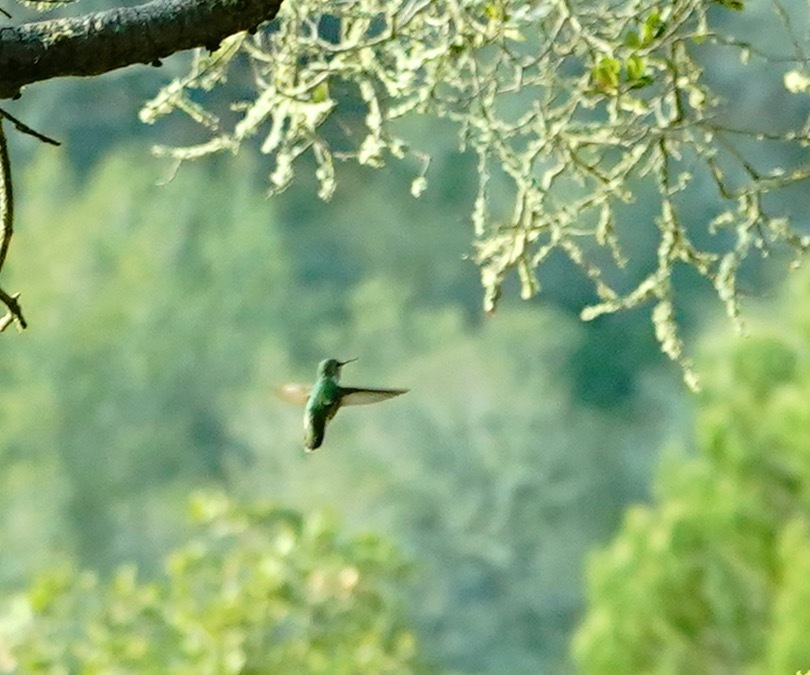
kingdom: Animalia
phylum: Chordata
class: Aves
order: Apodiformes
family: Trochilidae
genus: Calypte
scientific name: Calypte anna
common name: Anna's hummingbird
